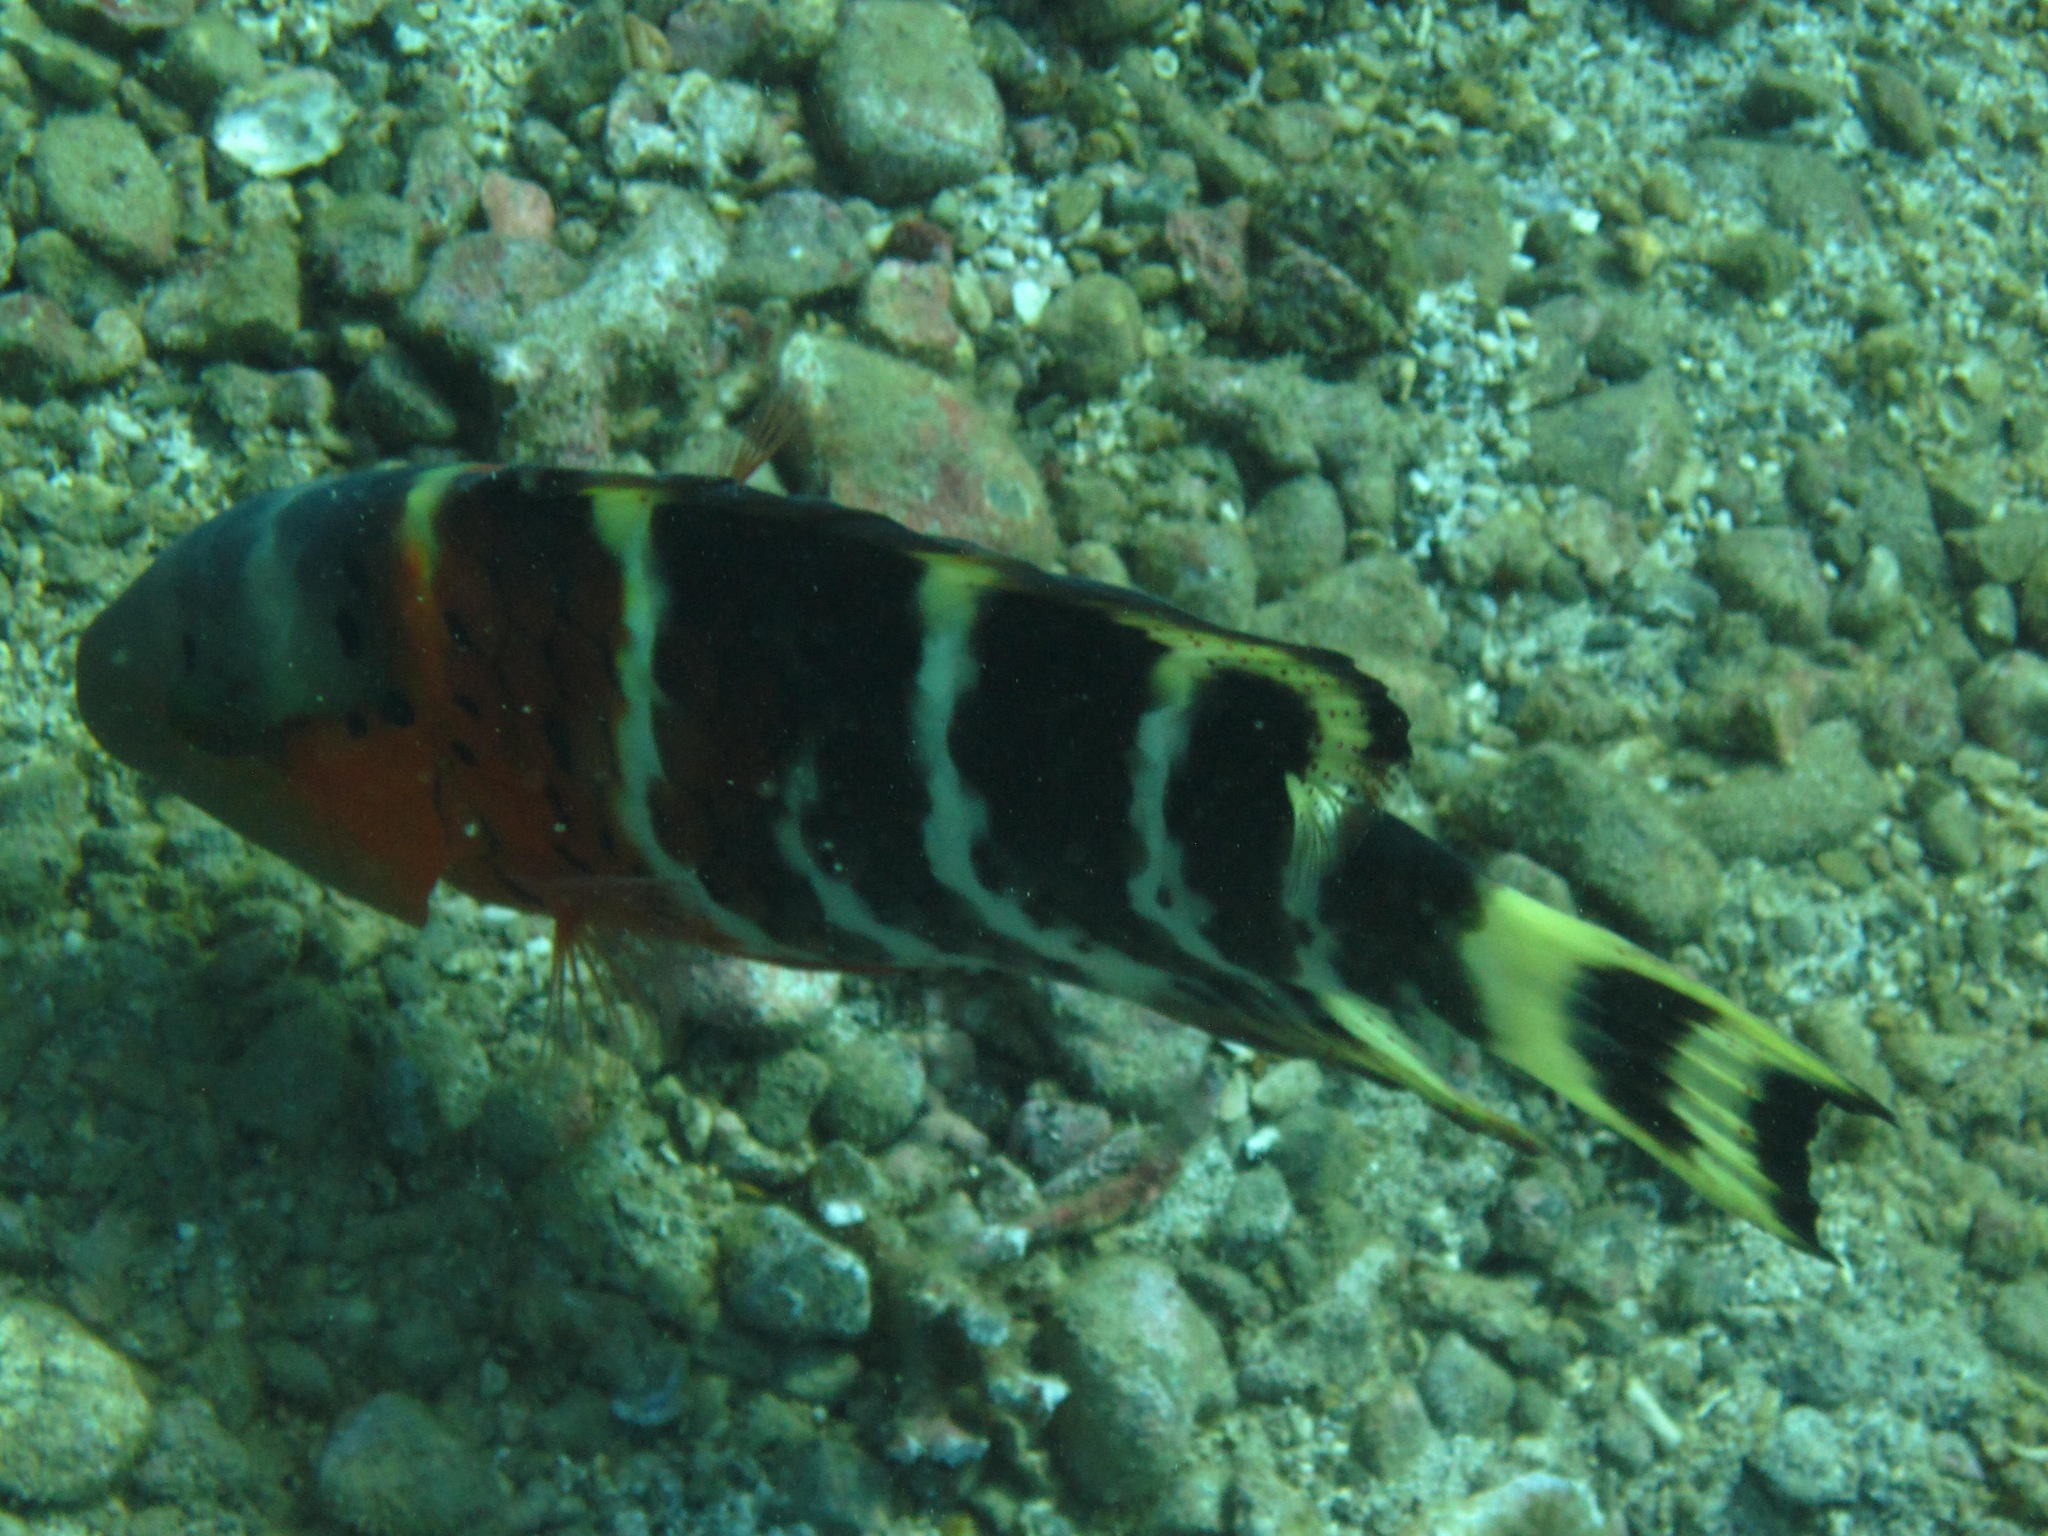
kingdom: Animalia
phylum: Chordata
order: Perciformes
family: Labridae
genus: Cheilinus
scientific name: Cheilinus fasciatus
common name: Red-breasted wrasse
